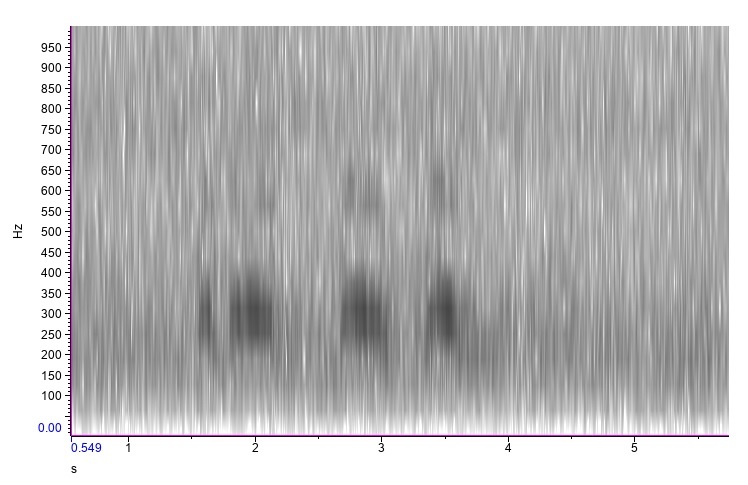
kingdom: Animalia
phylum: Chordata
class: Aves
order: Strigiformes
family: Strigidae
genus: Bubo
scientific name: Bubo virginianus
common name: Great horned owl
